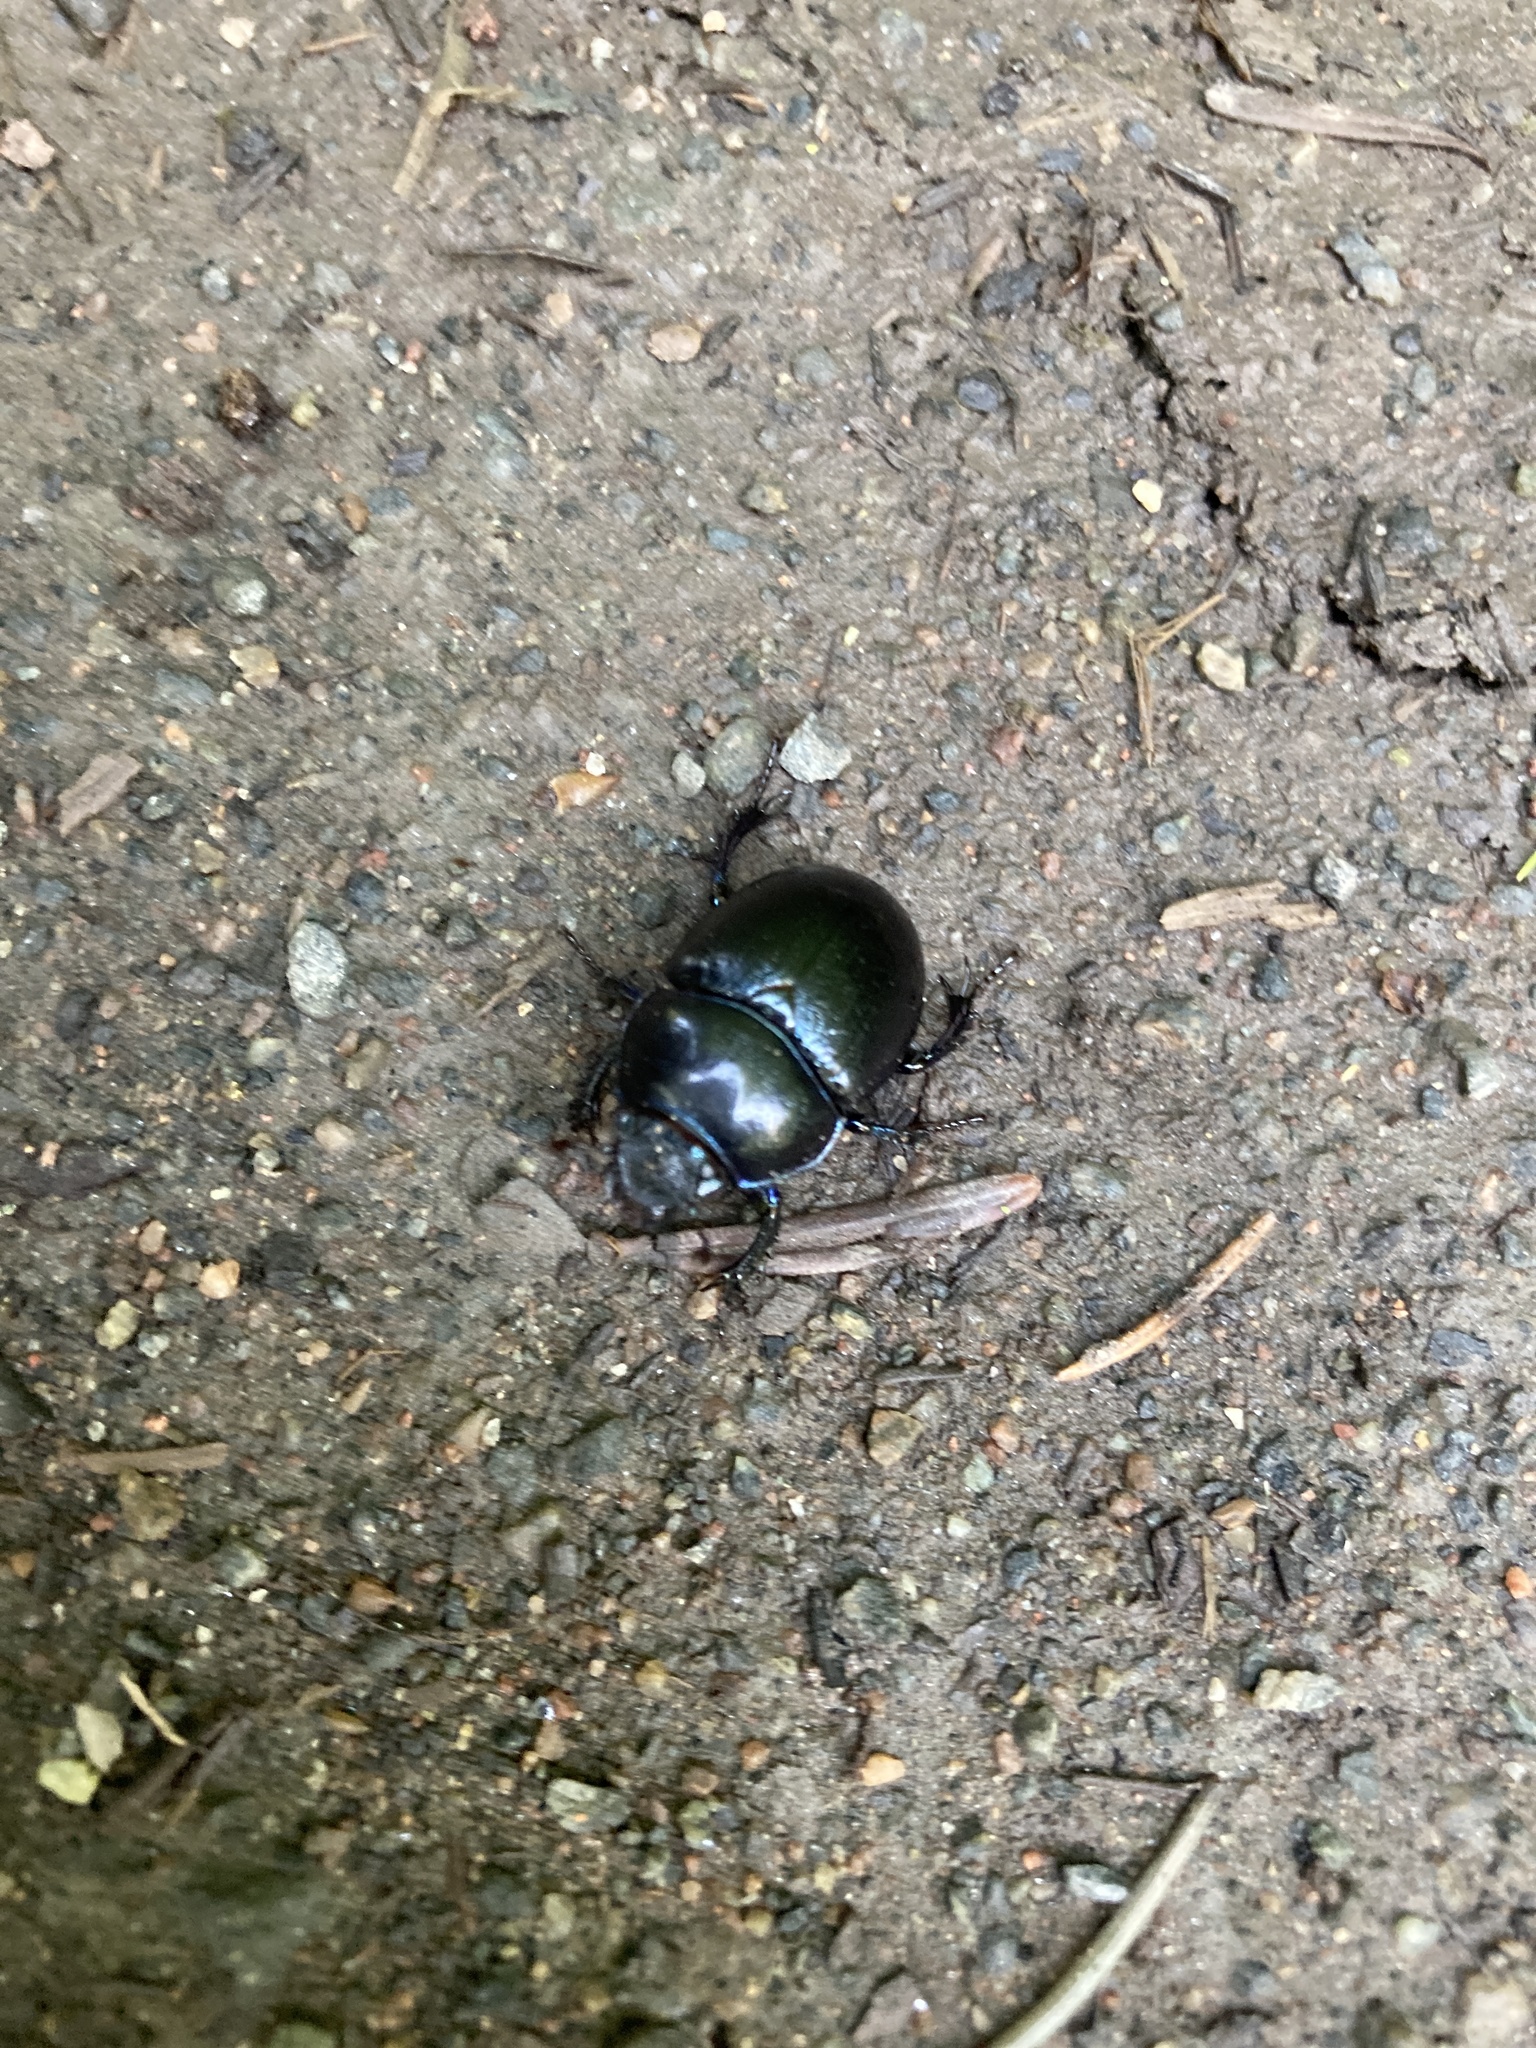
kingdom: Animalia
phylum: Arthropoda
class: Insecta
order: Coleoptera
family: Geotrupidae
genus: Anoplotrupes
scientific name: Anoplotrupes stercorosus
